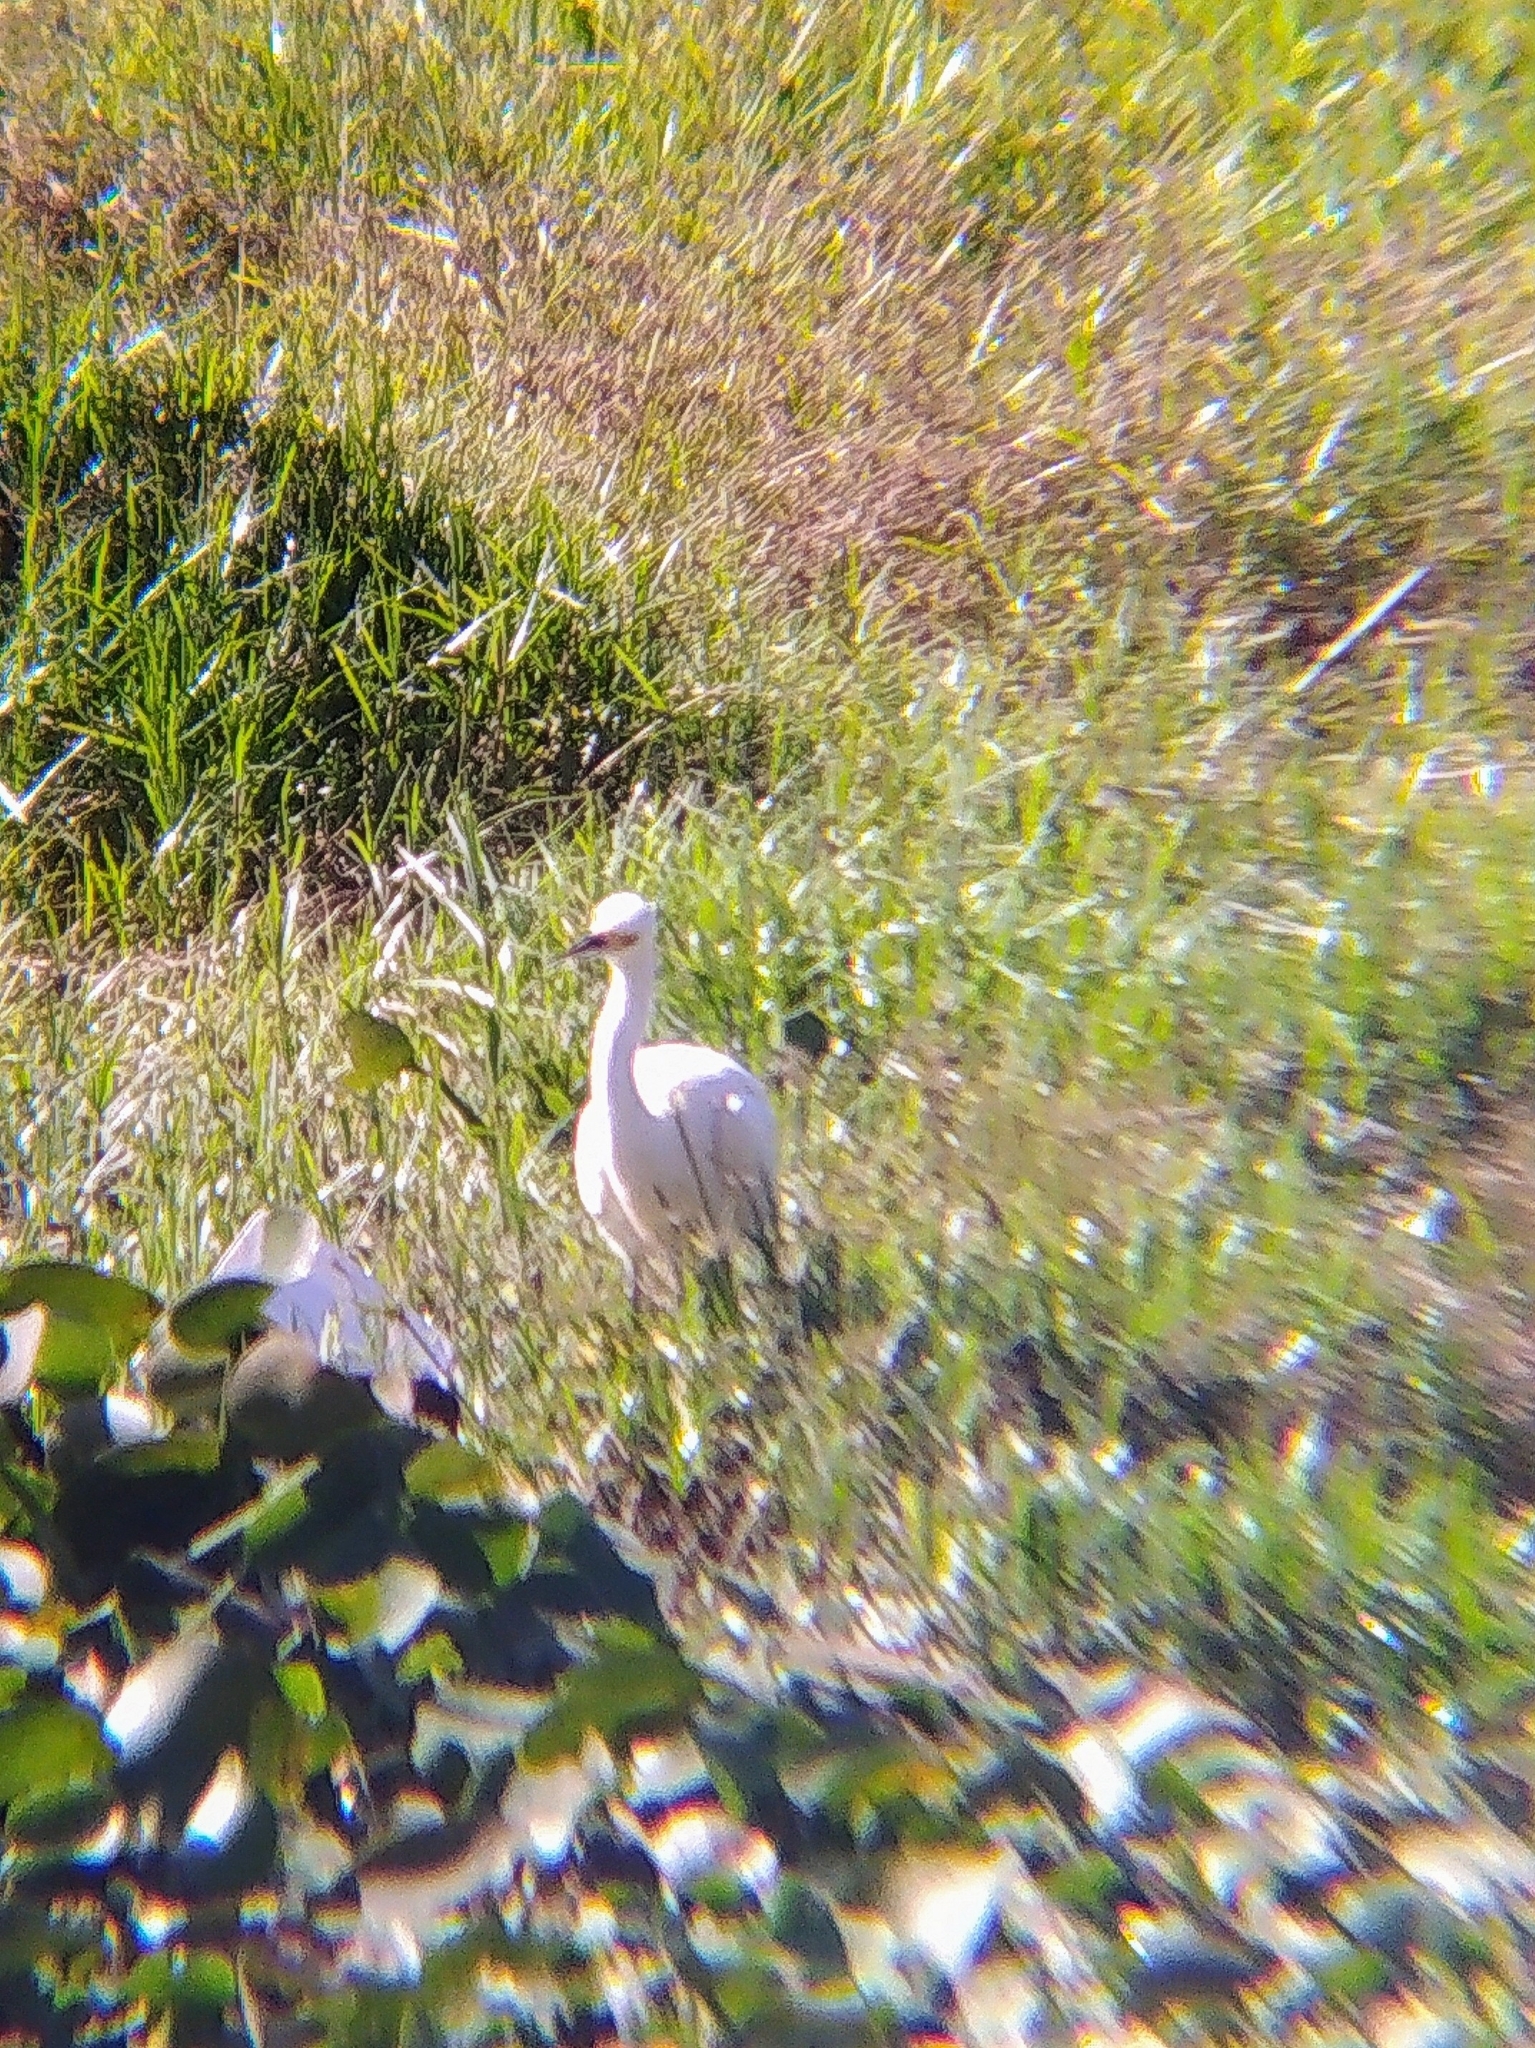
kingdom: Animalia
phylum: Chordata
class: Aves
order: Pelecaniformes
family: Ardeidae
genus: Egretta
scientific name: Egretta thula
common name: Snowy egret
